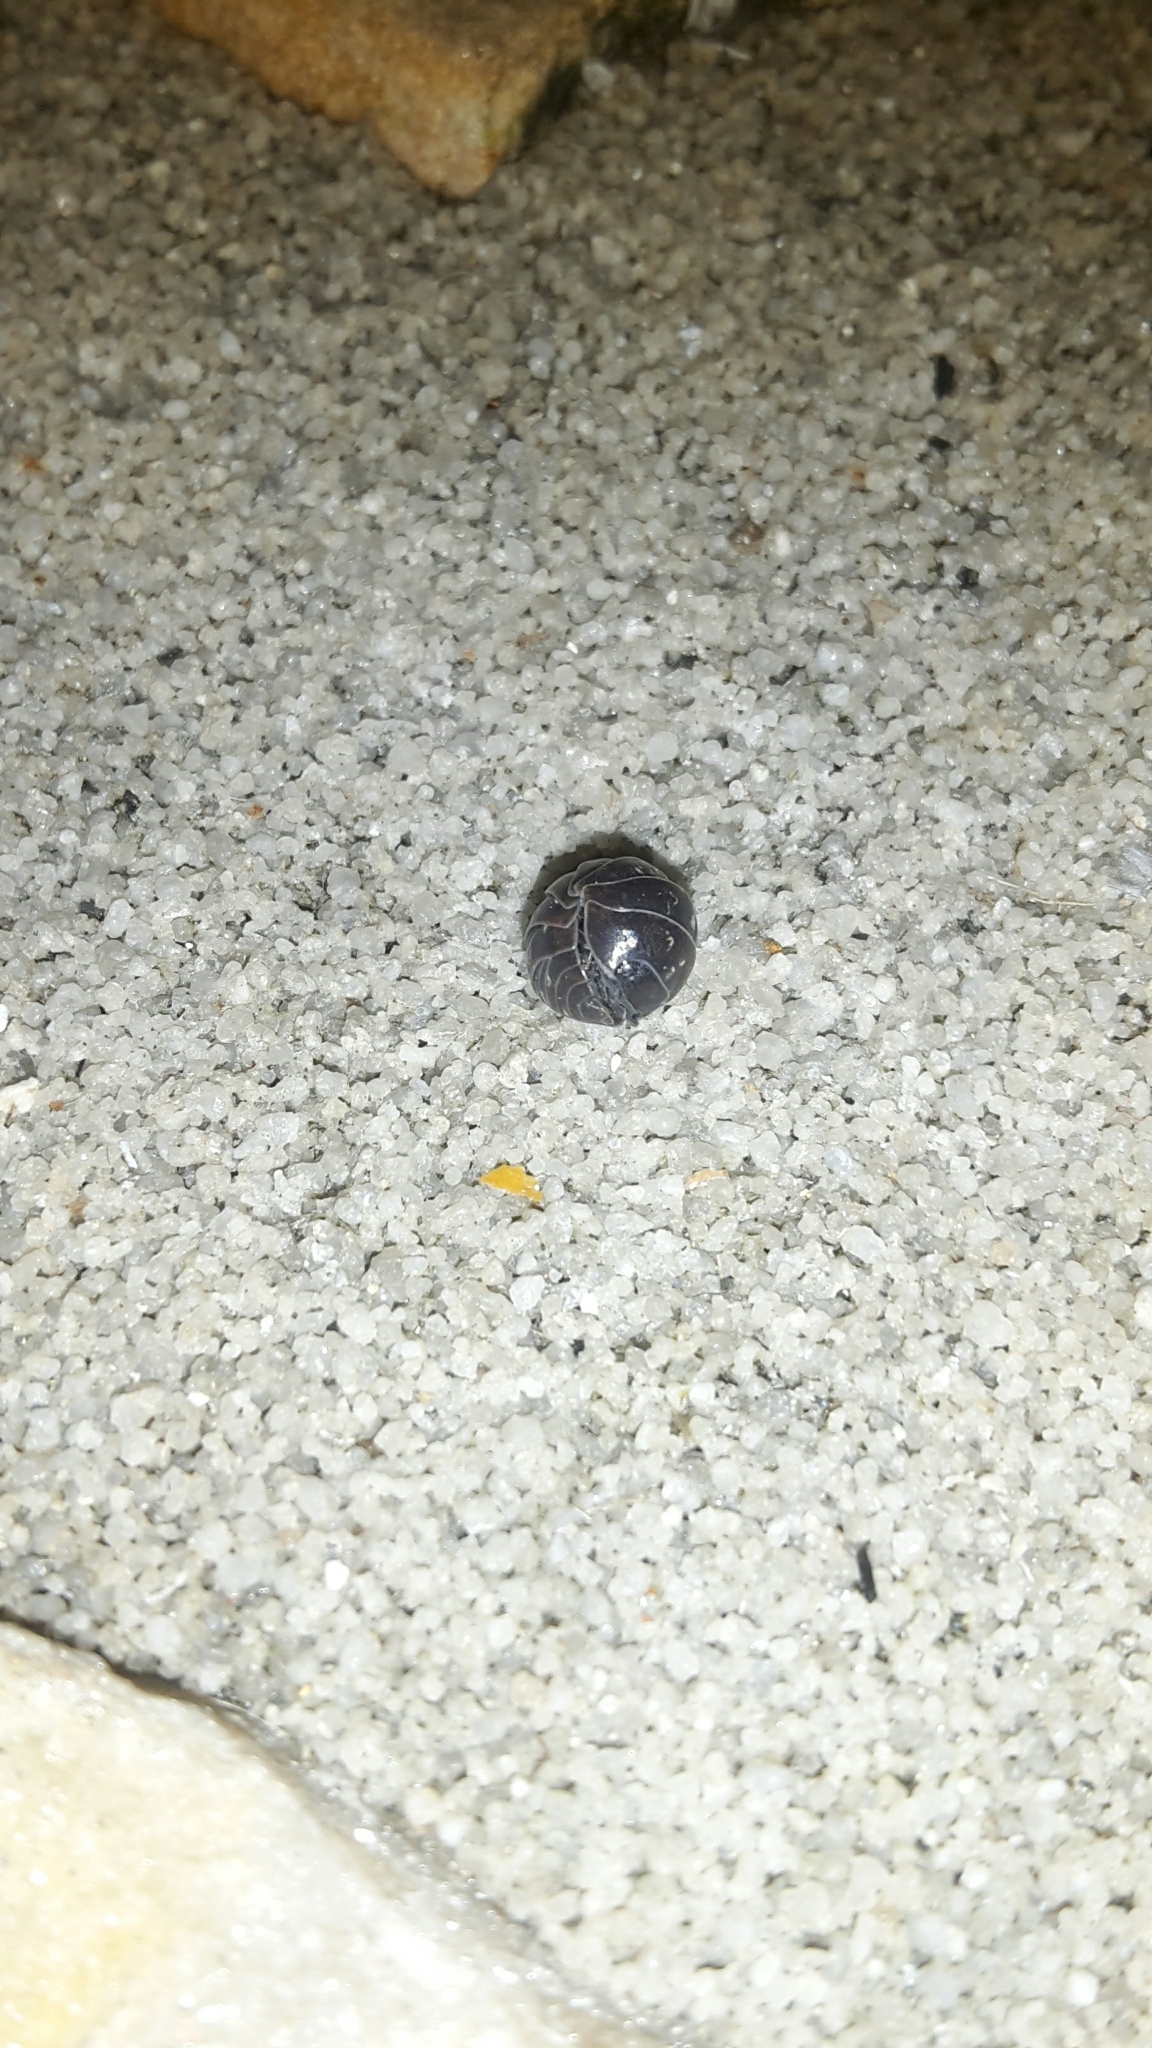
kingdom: Animalia
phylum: Arthropoda
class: Malacostraca
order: Isopoda
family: Armadillidiidae
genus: Armadillidium
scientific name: Armadillidium vulgare
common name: Common pill woodlouse
